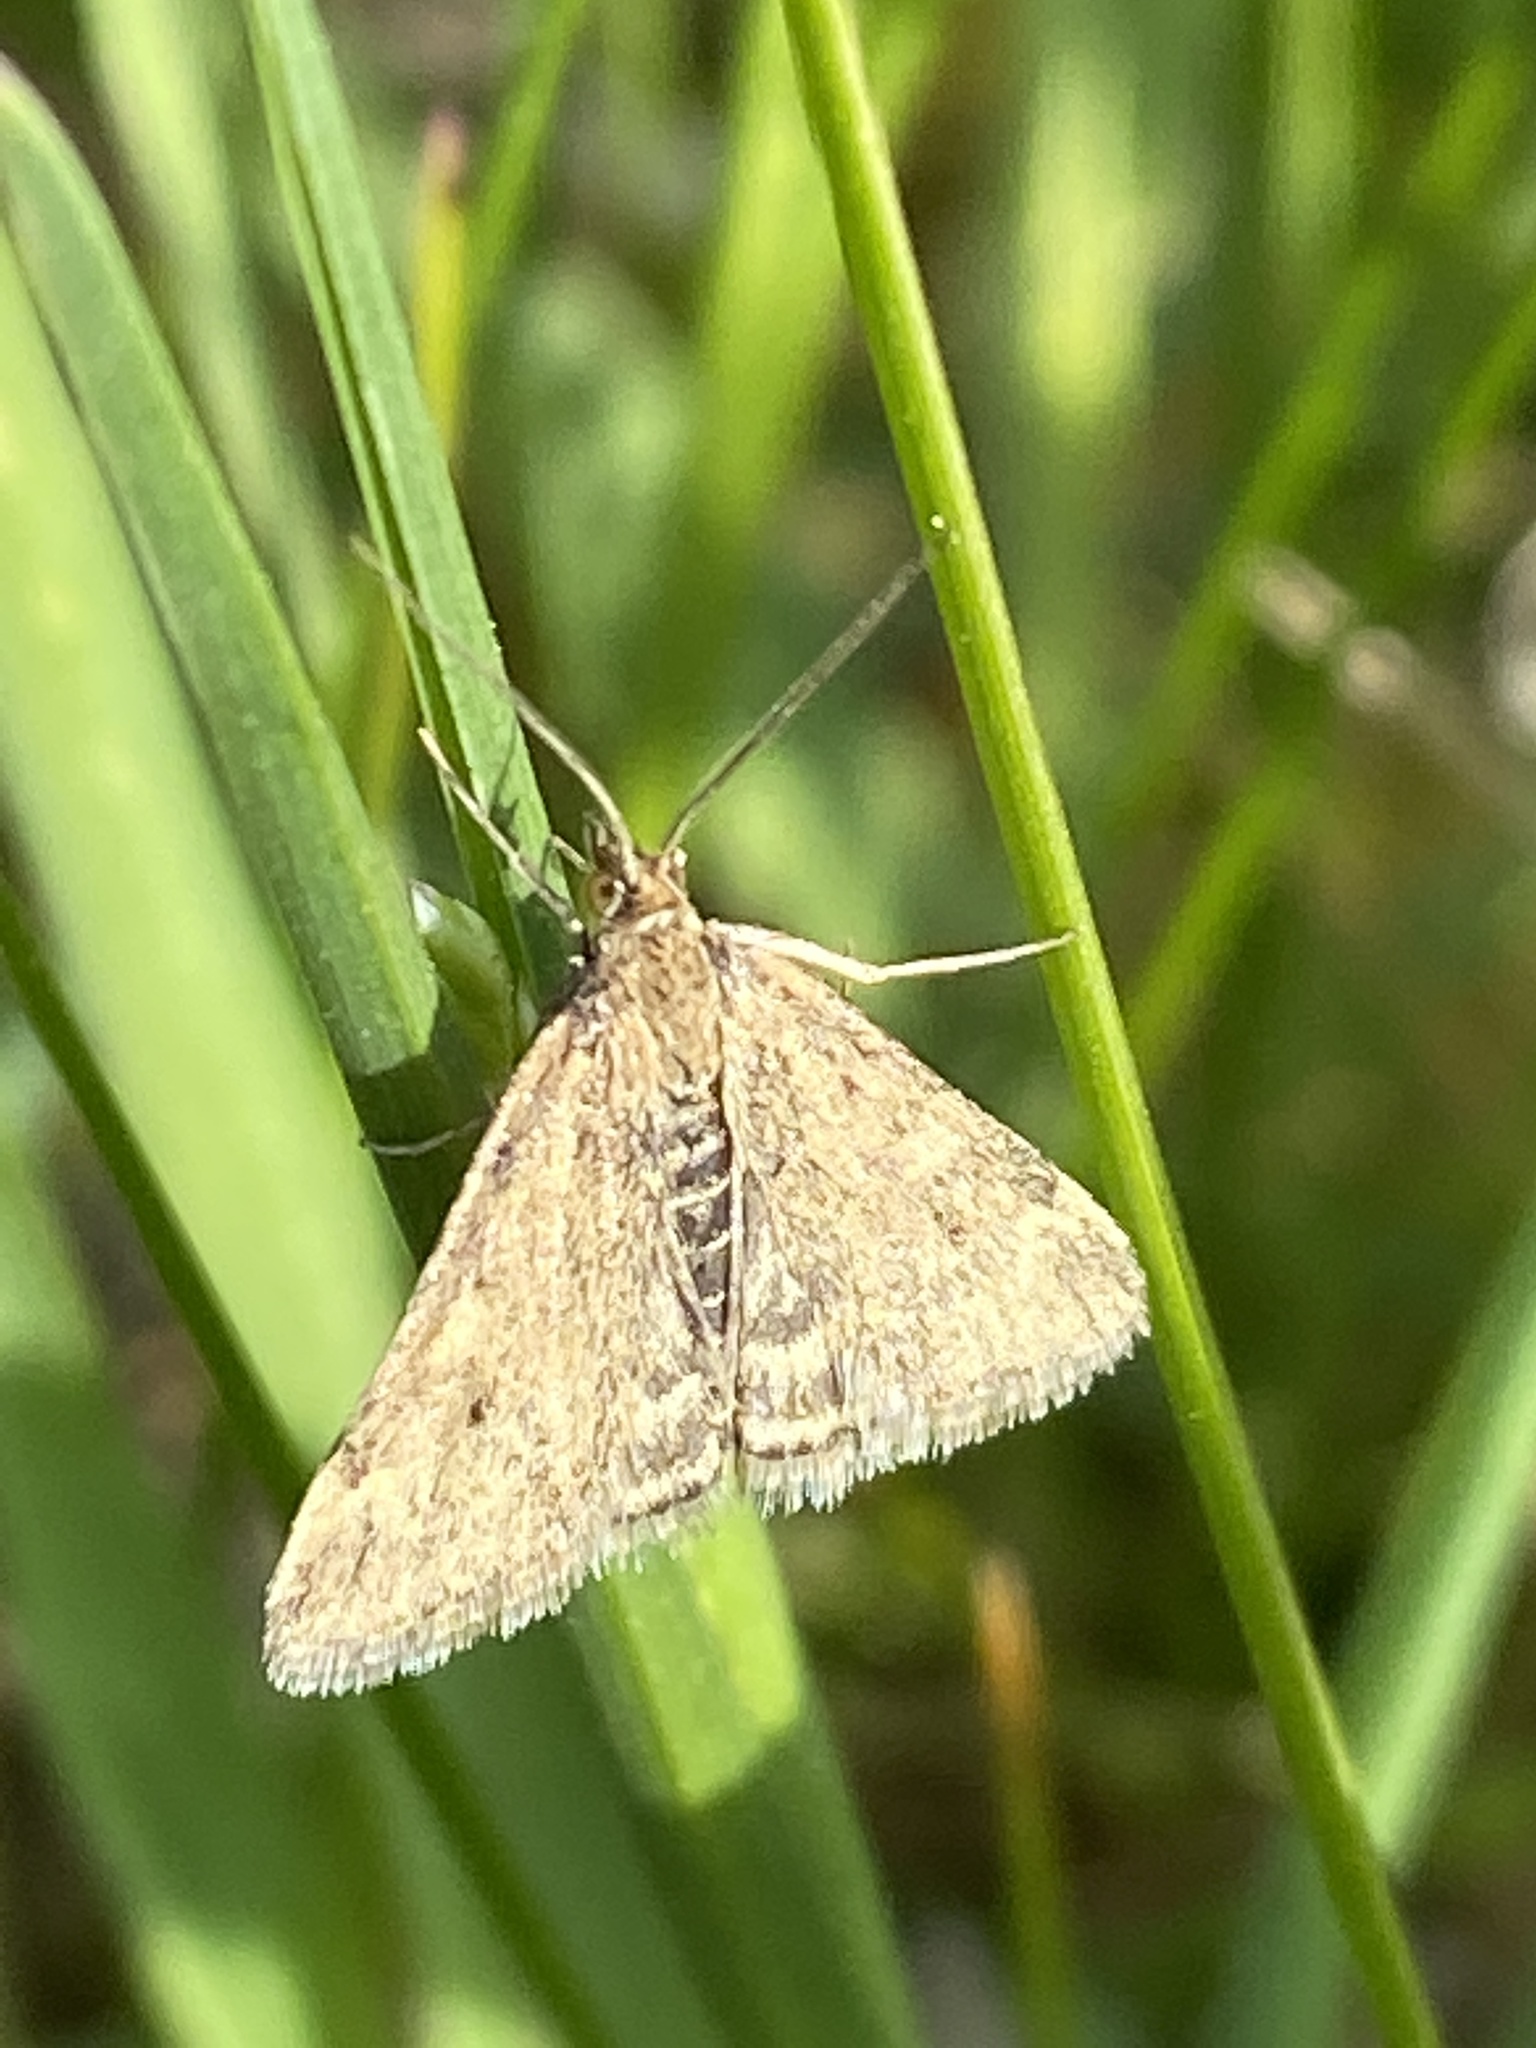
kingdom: Animalia
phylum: Arthropoda
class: Insecta
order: Lepidoptera
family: Crambidae
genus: Pyrausta
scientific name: Pyrausta despicata
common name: Straw-barred pearl
